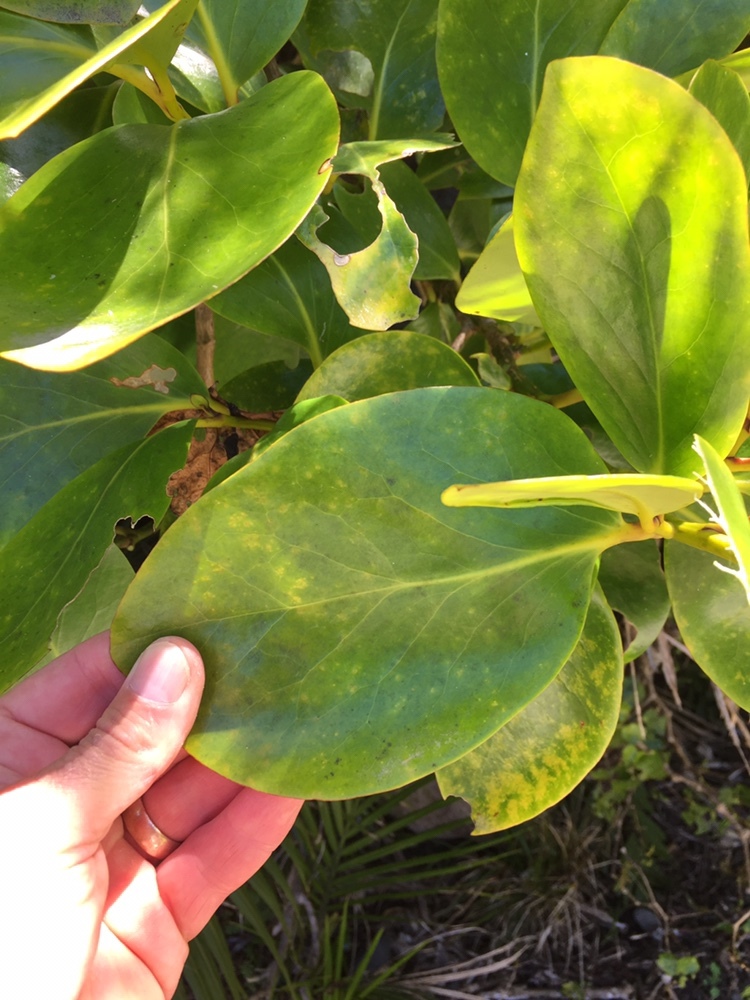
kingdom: Plantae
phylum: Tracheophyta
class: Magnoliopsida
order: Apiales
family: Griseliniaceae
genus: Griselinia
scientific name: Griselinia lucida
